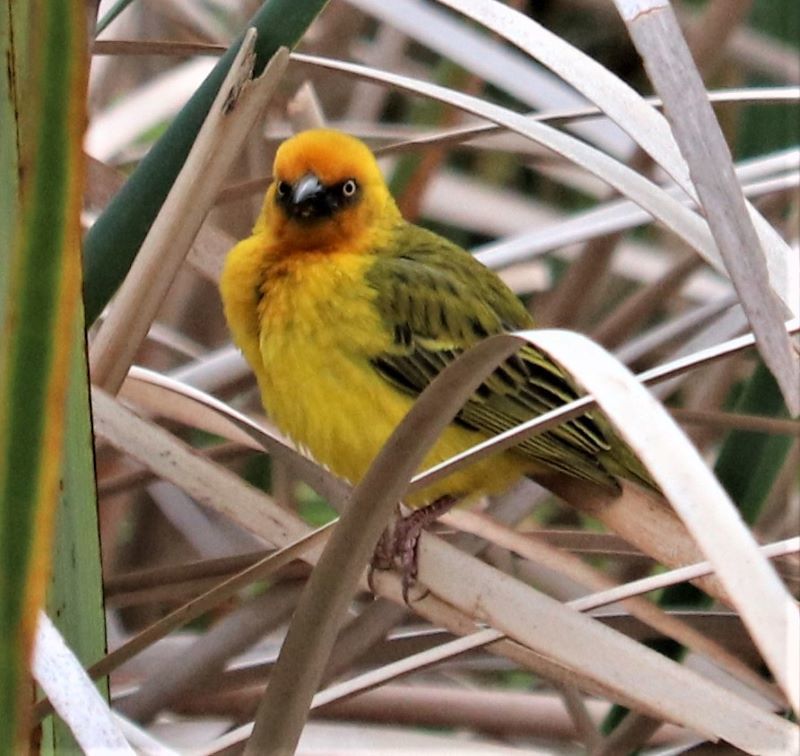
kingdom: Animalia
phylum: Chordata
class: Aves
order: Passeriformes
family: Ploceidae
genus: Ploceus
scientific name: Ploceus capensis
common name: Cape weaver
